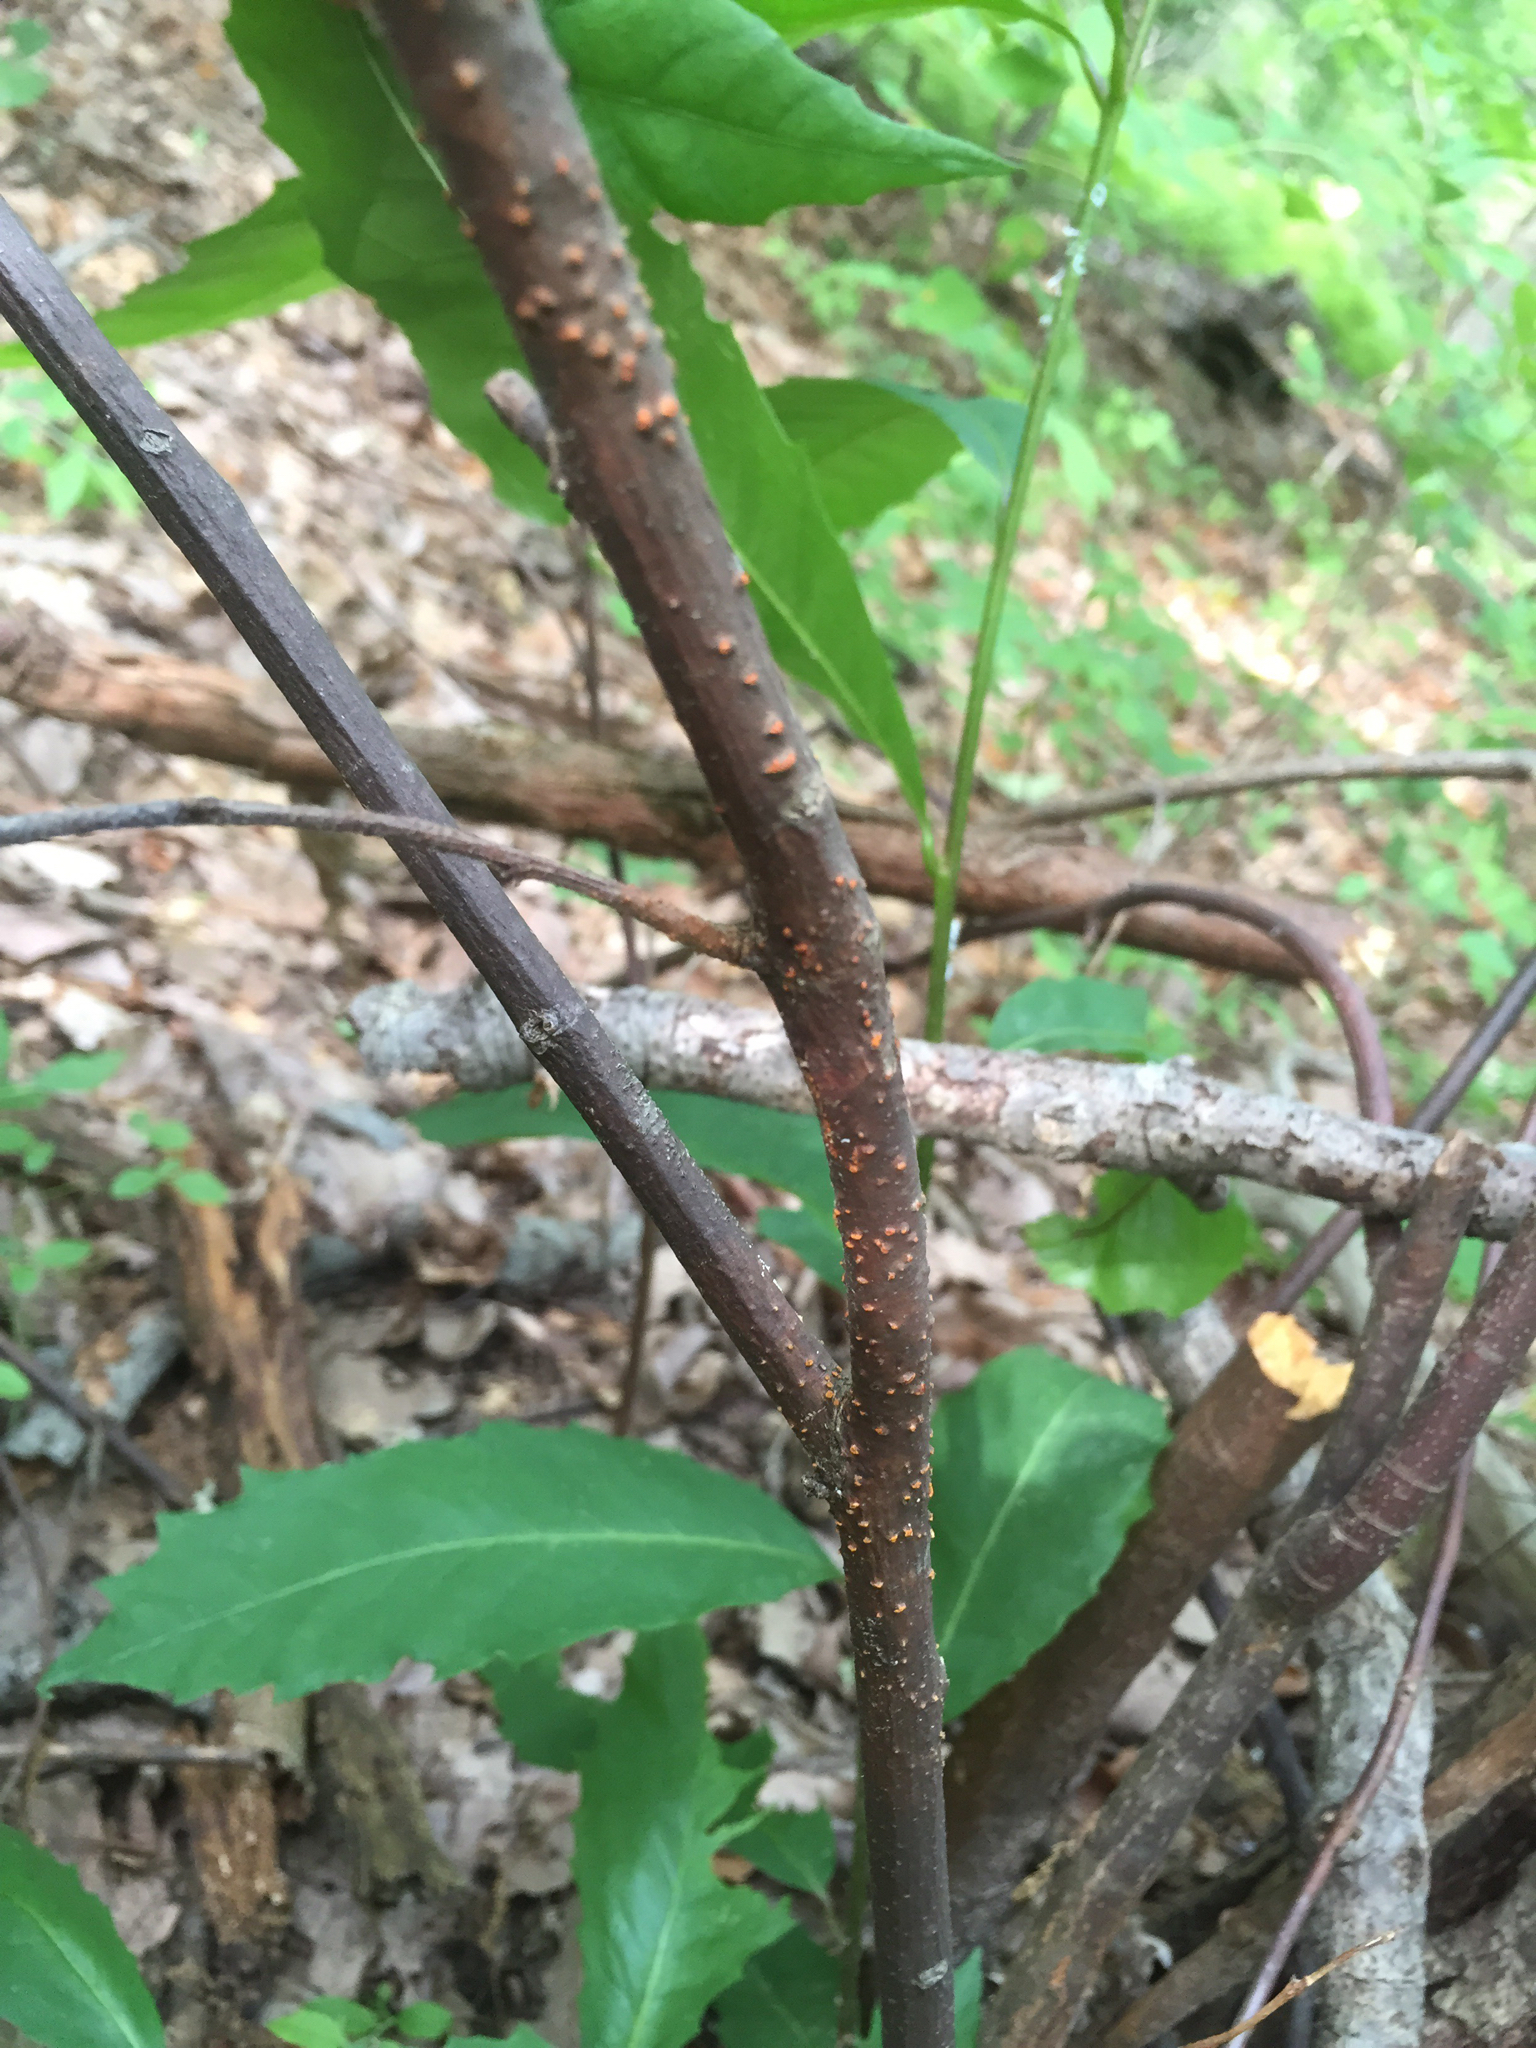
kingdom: Fungi
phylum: Ascomycota
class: Sordariomycetes
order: Diaporthales
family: Cryphonectriaceae
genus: Cryphonectria
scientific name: Cryphonectria parasitica
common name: Chestnut blight
